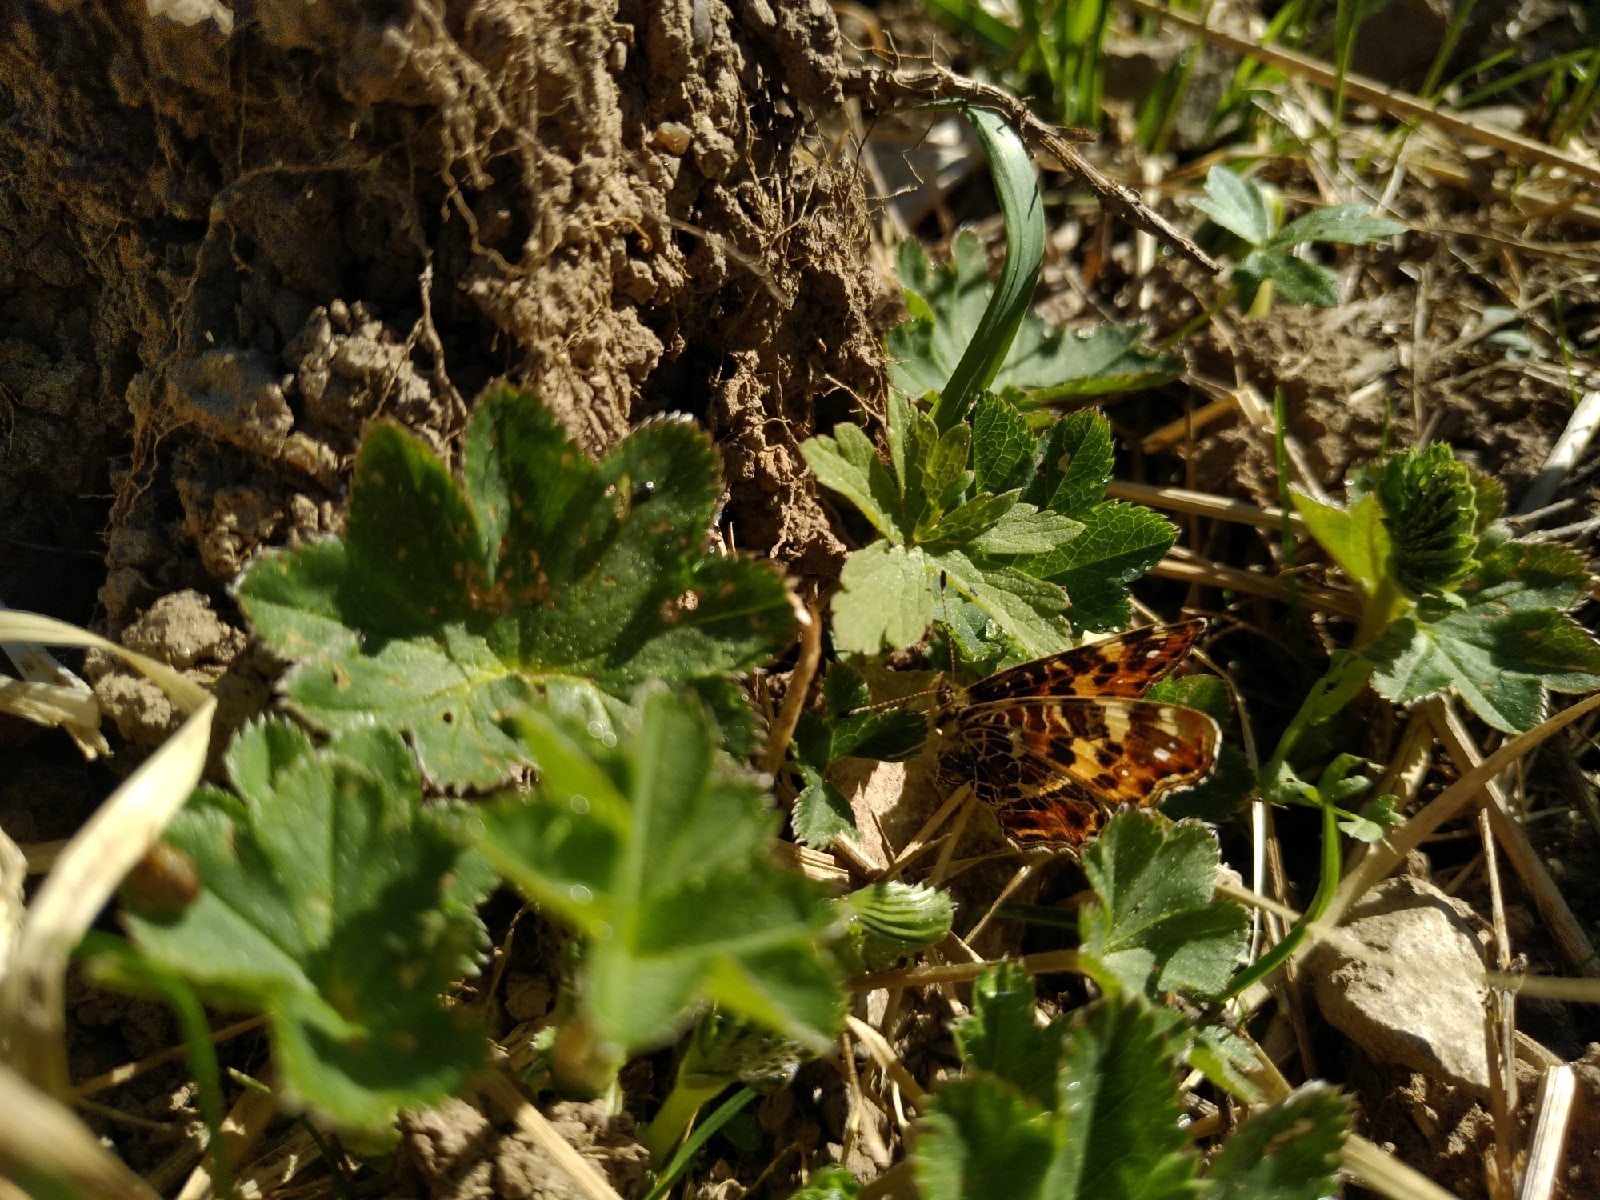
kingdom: Animalia
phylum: Arthropoda
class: Insecta
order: Lepidoptera
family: Nymphalidae
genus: Araschnia
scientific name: Araschnia levana
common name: Map butterfly
